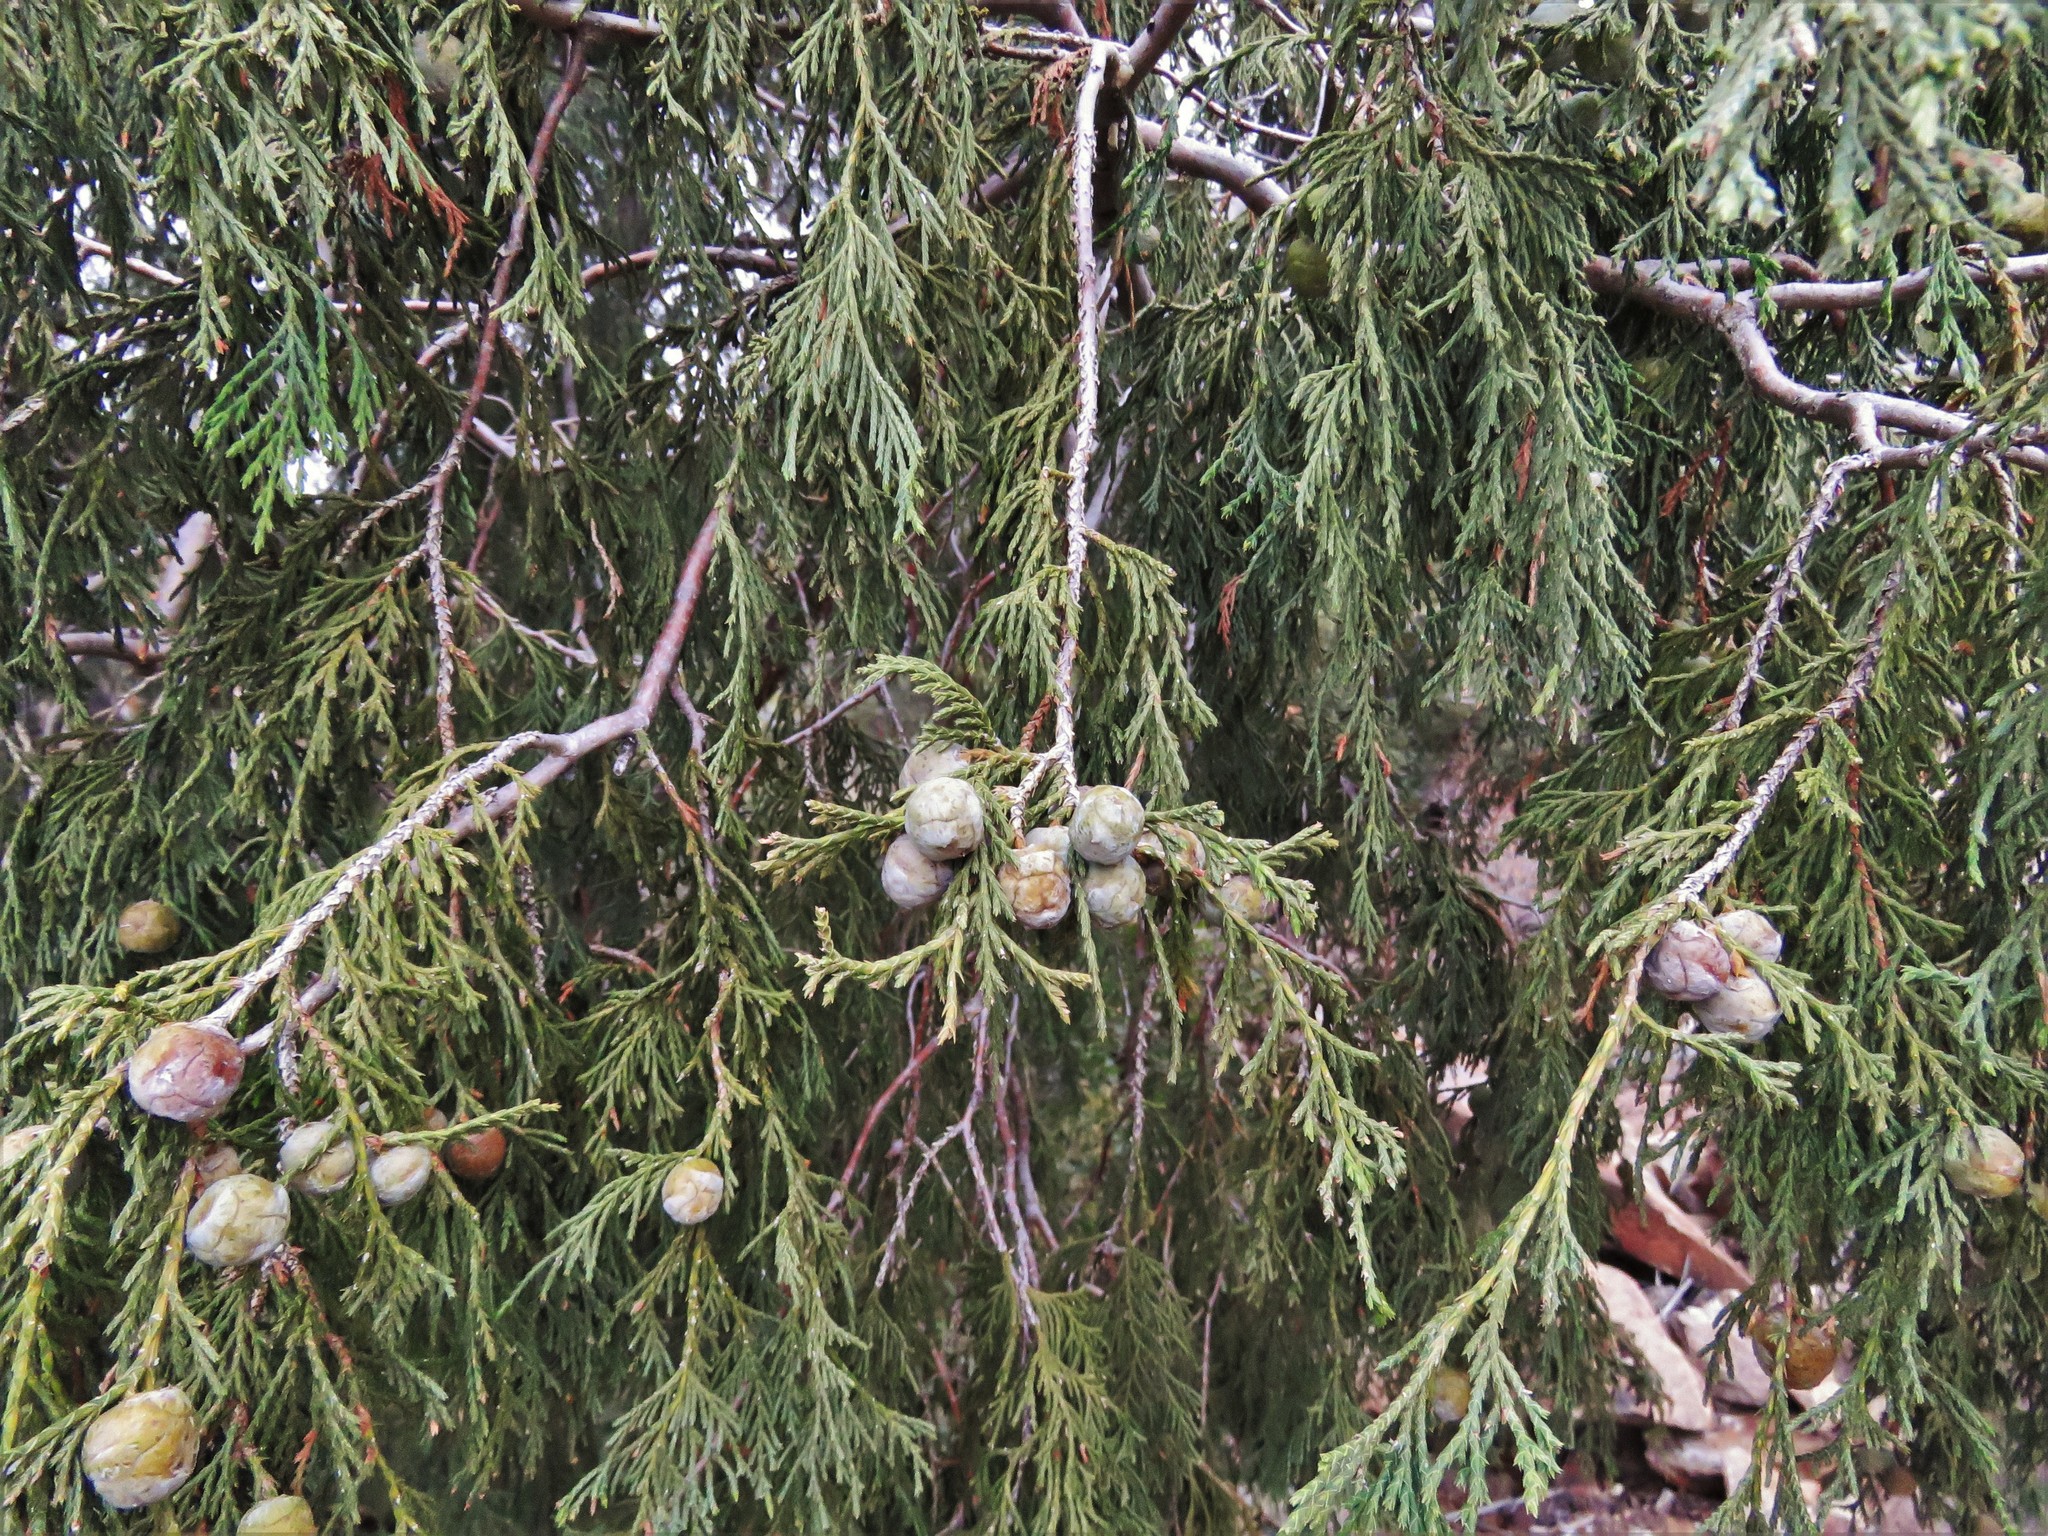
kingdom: Plantae
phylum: Tracheophyta
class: Pinopsida
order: Pinales
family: Cupressaceae
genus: Juniperus
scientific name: Juniperus flaccida
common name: Drooping juniper
